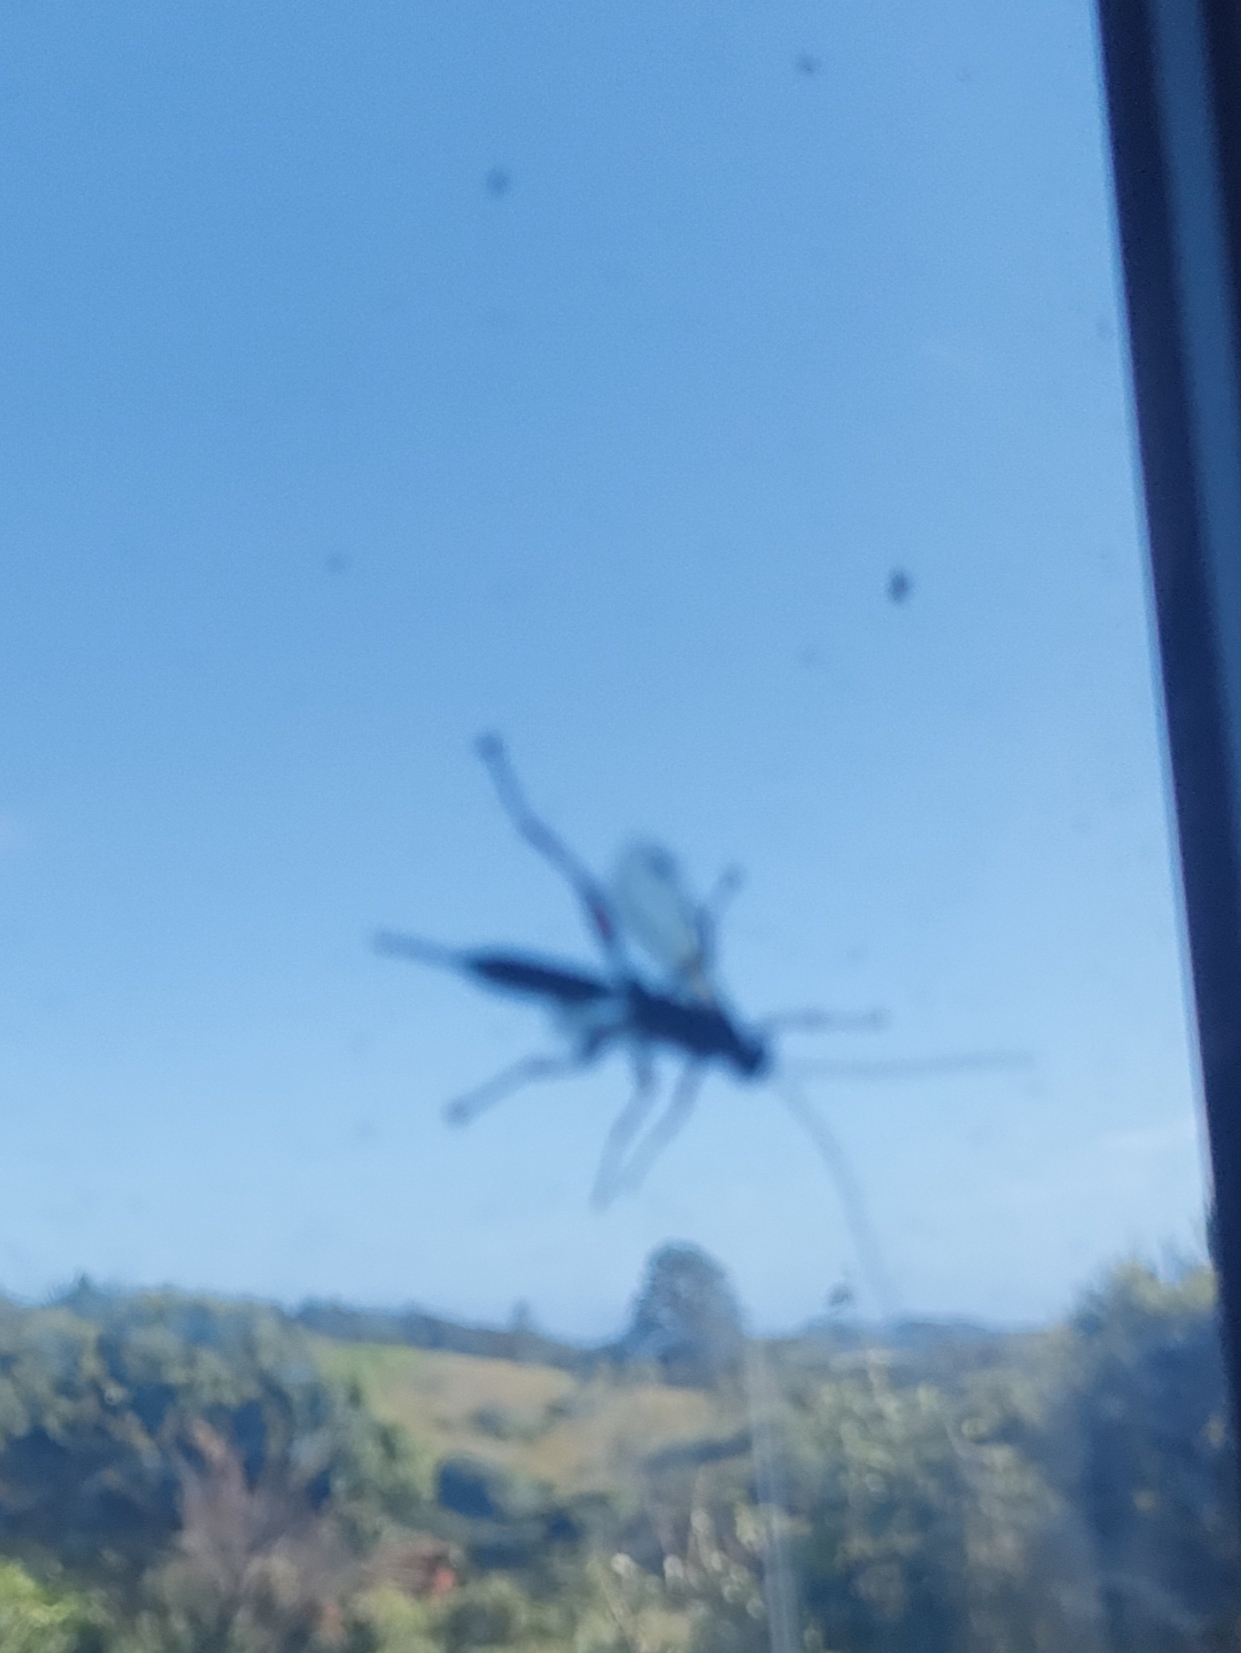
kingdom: Animalia
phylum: Arthropoda
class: Insecta
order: Hymenoptera
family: Ichneumonidae
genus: Echthromorpha
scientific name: Echthromorpha intricatoria
